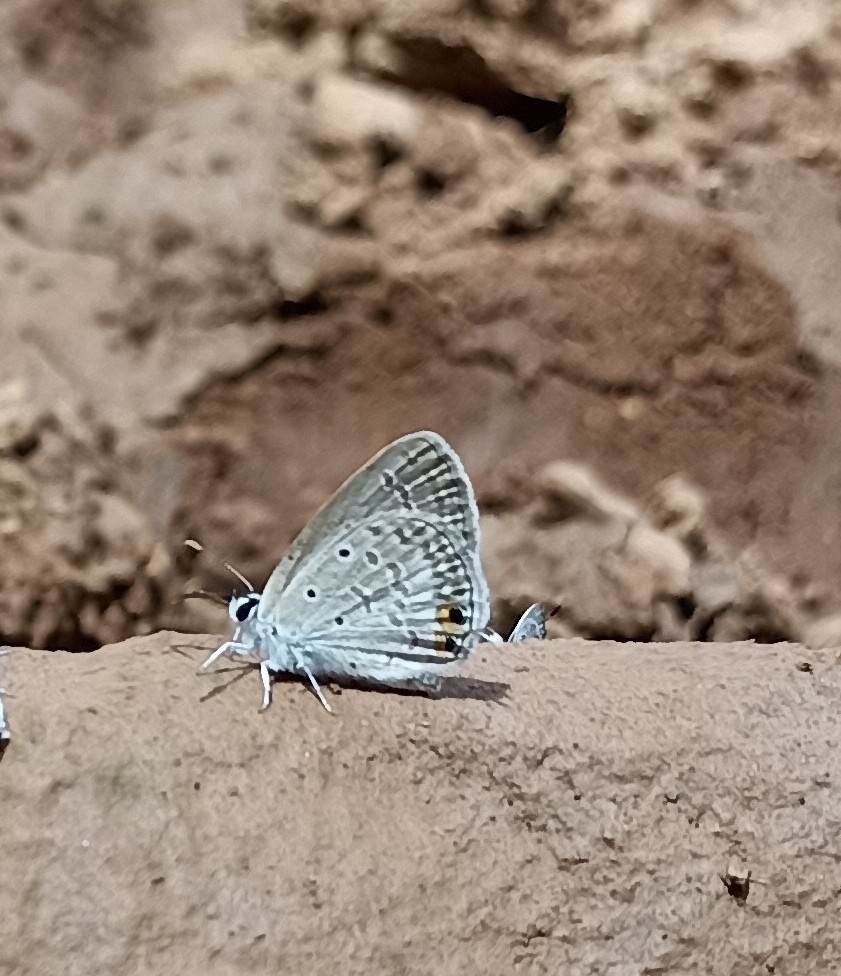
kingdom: Animalia
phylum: Arthropoda
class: Insecta
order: Lepidoptera
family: Lycaenidae
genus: Euchrysops
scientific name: Euchrysops cnejus
